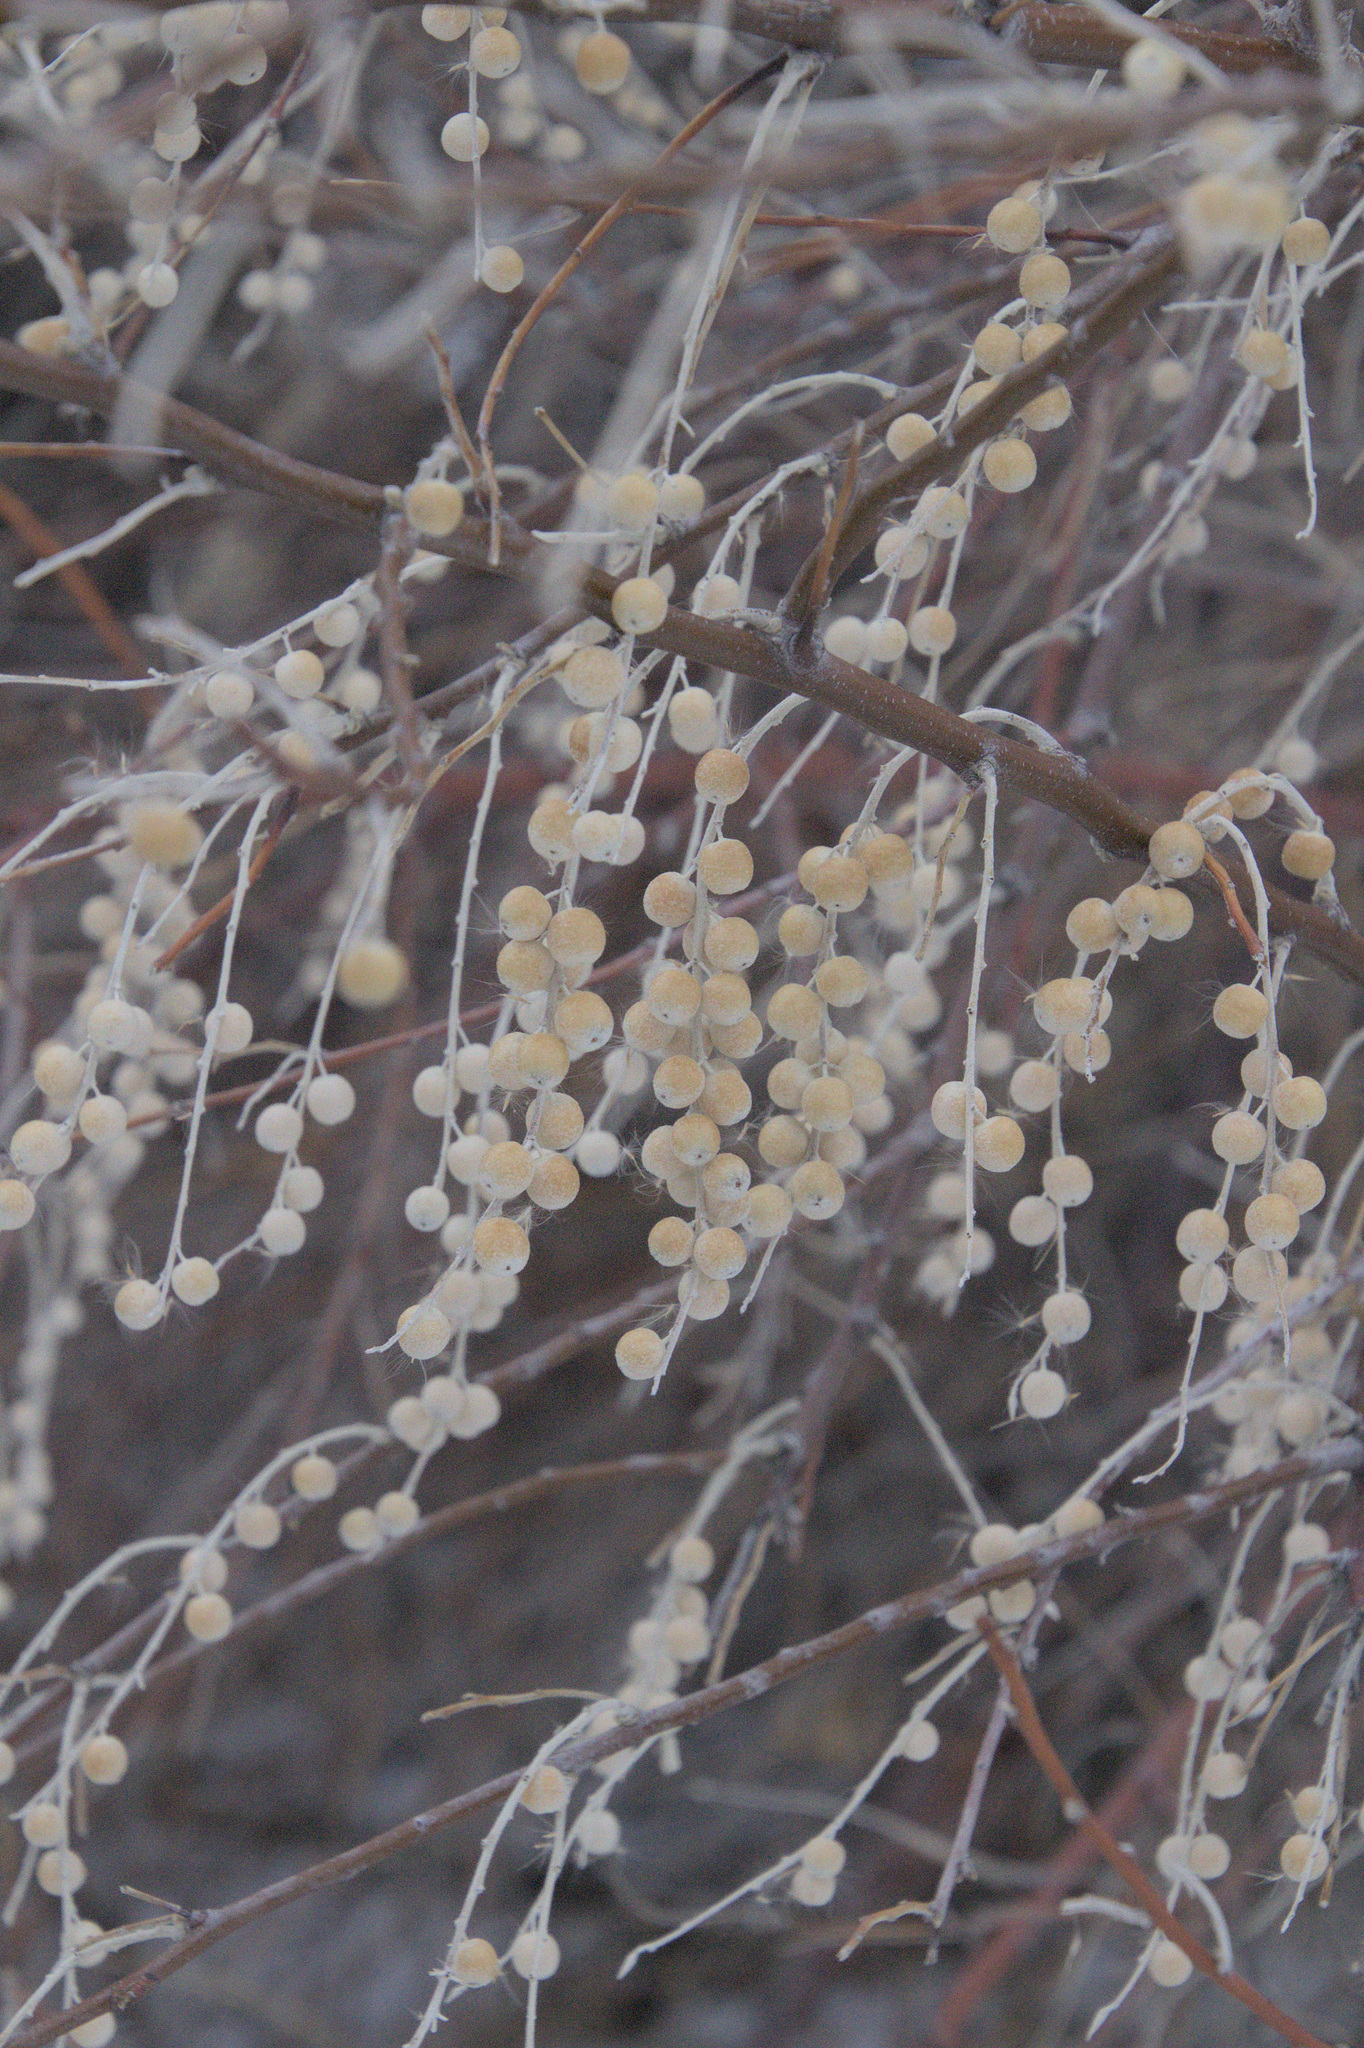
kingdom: Plantae
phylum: Tracheophyta
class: Magnoliopsida
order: Rosales
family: Elaeagnaceae
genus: Elaeagnus
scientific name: Elaeagnus angustifolia
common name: Russian olive
